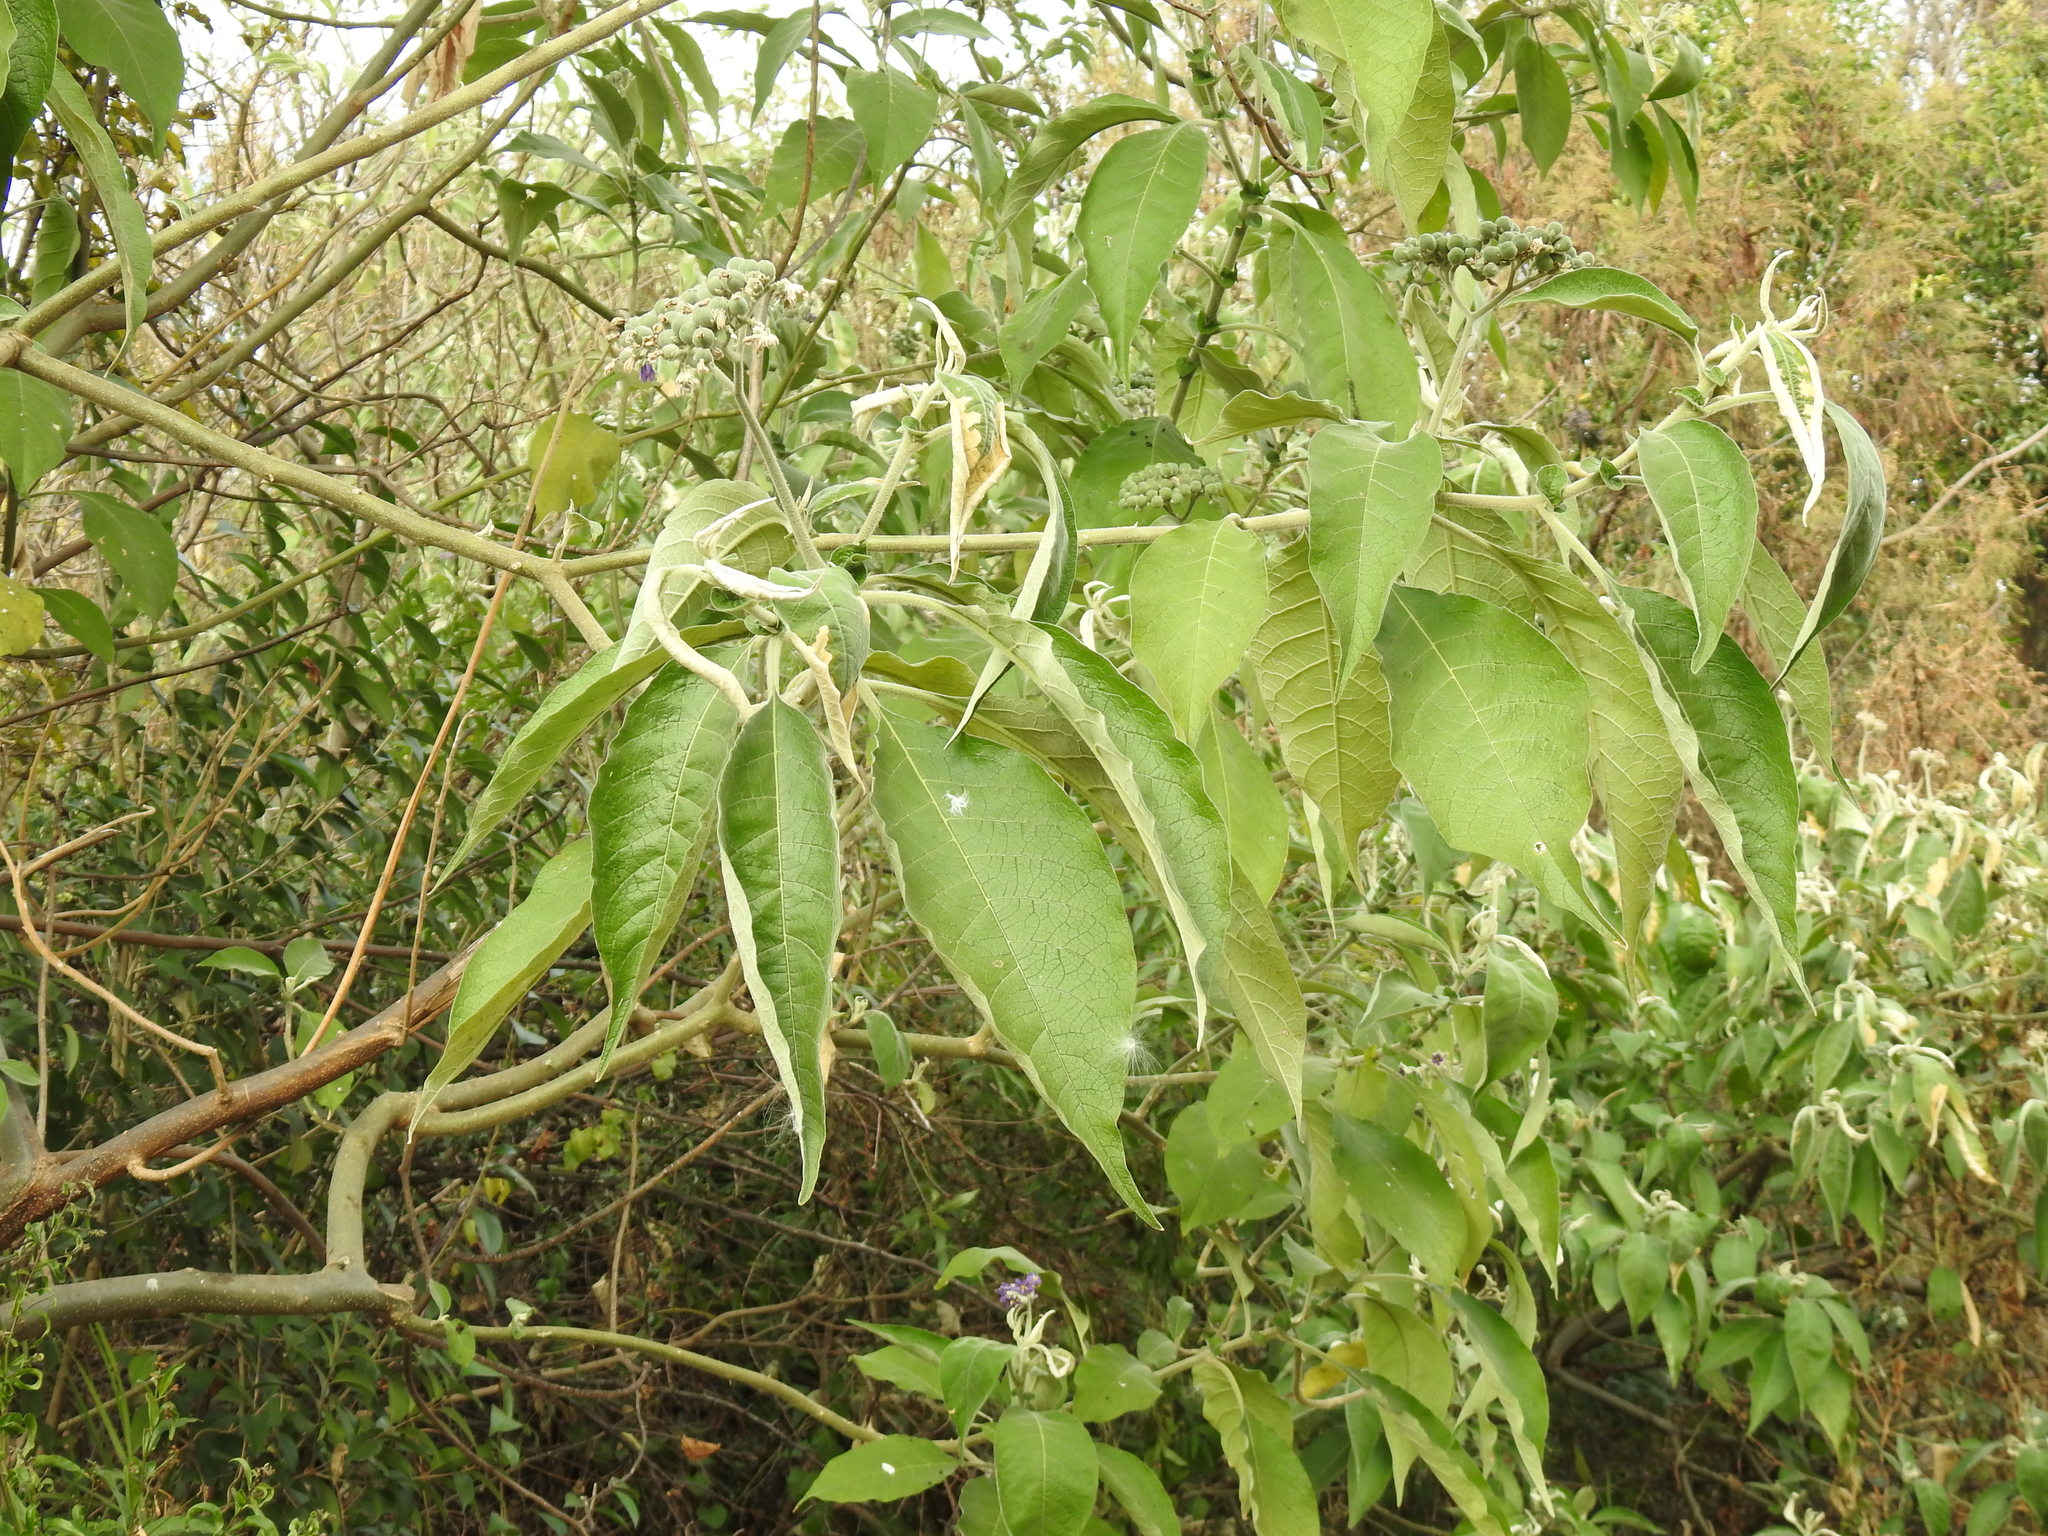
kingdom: Plantae
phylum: Tracheophyta
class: Magnoliopsida
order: Solanales
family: Solanaceae
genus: Solanum
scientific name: Solanum mauritianum
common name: Earleaf nightshade
